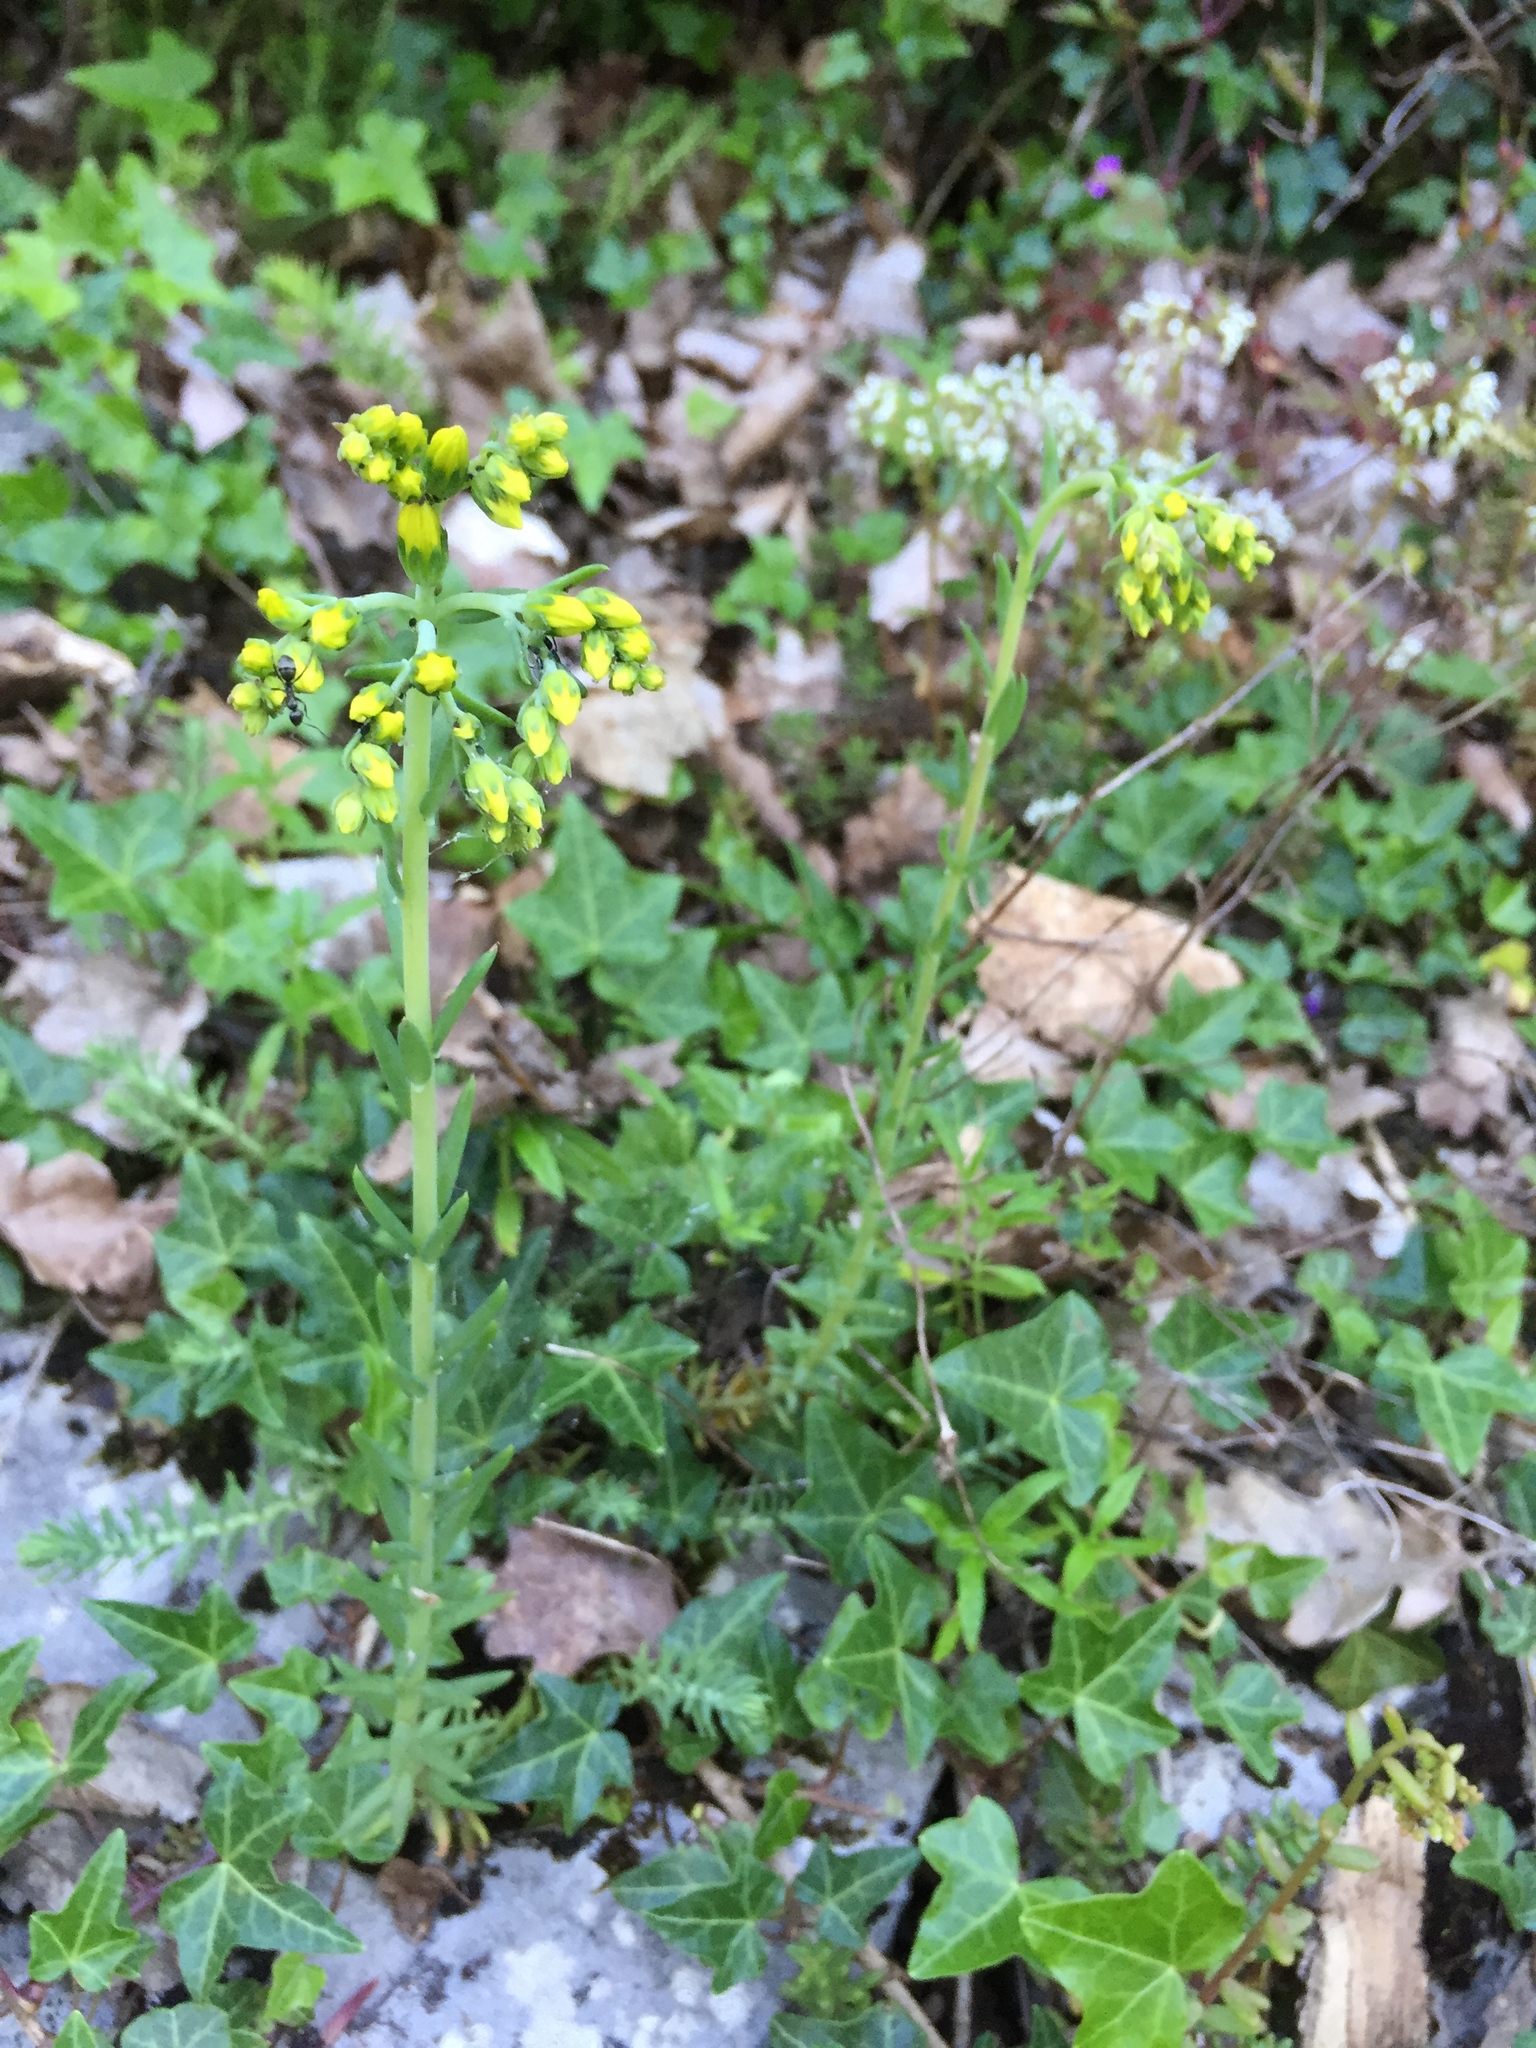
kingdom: Plantae
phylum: Tracheophyta
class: Magnoliopsida
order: Saxifragales
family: Crassulaceae
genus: Petrosedum
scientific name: Petrosedum rupestre
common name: Jenny's stonecrop
